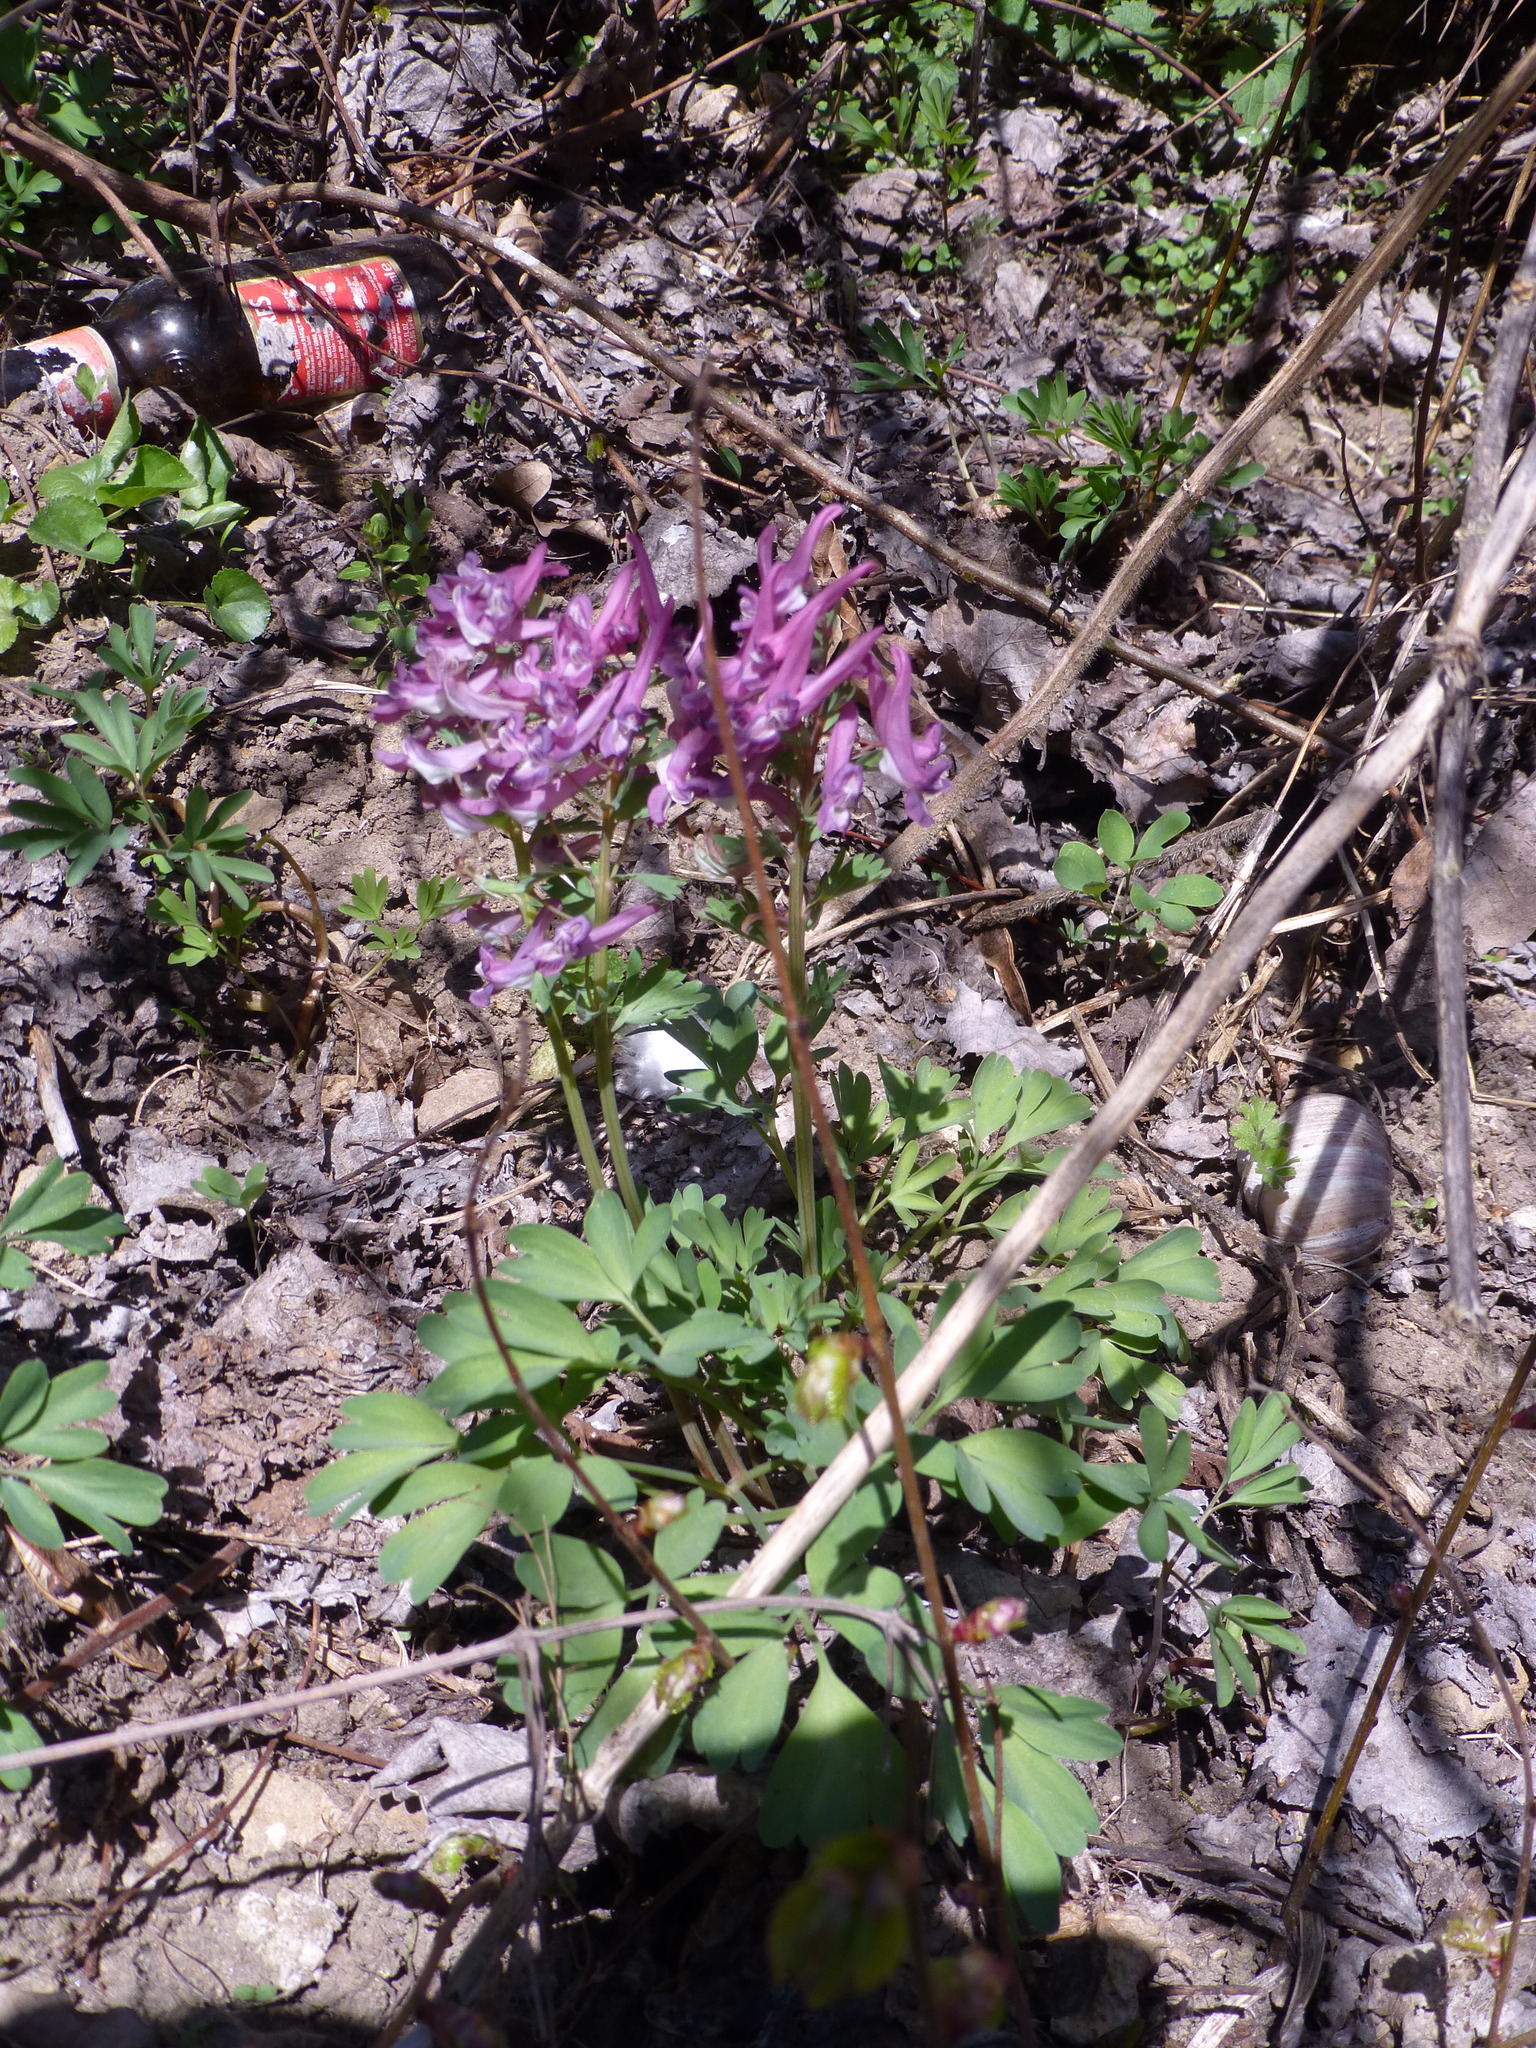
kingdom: Plantae
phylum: Tracheophyta
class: Magnoliopsida
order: Ranunculales
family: Papaveraceae
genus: Corydalis
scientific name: Corydalis solida
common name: Bird-in-a-bush
